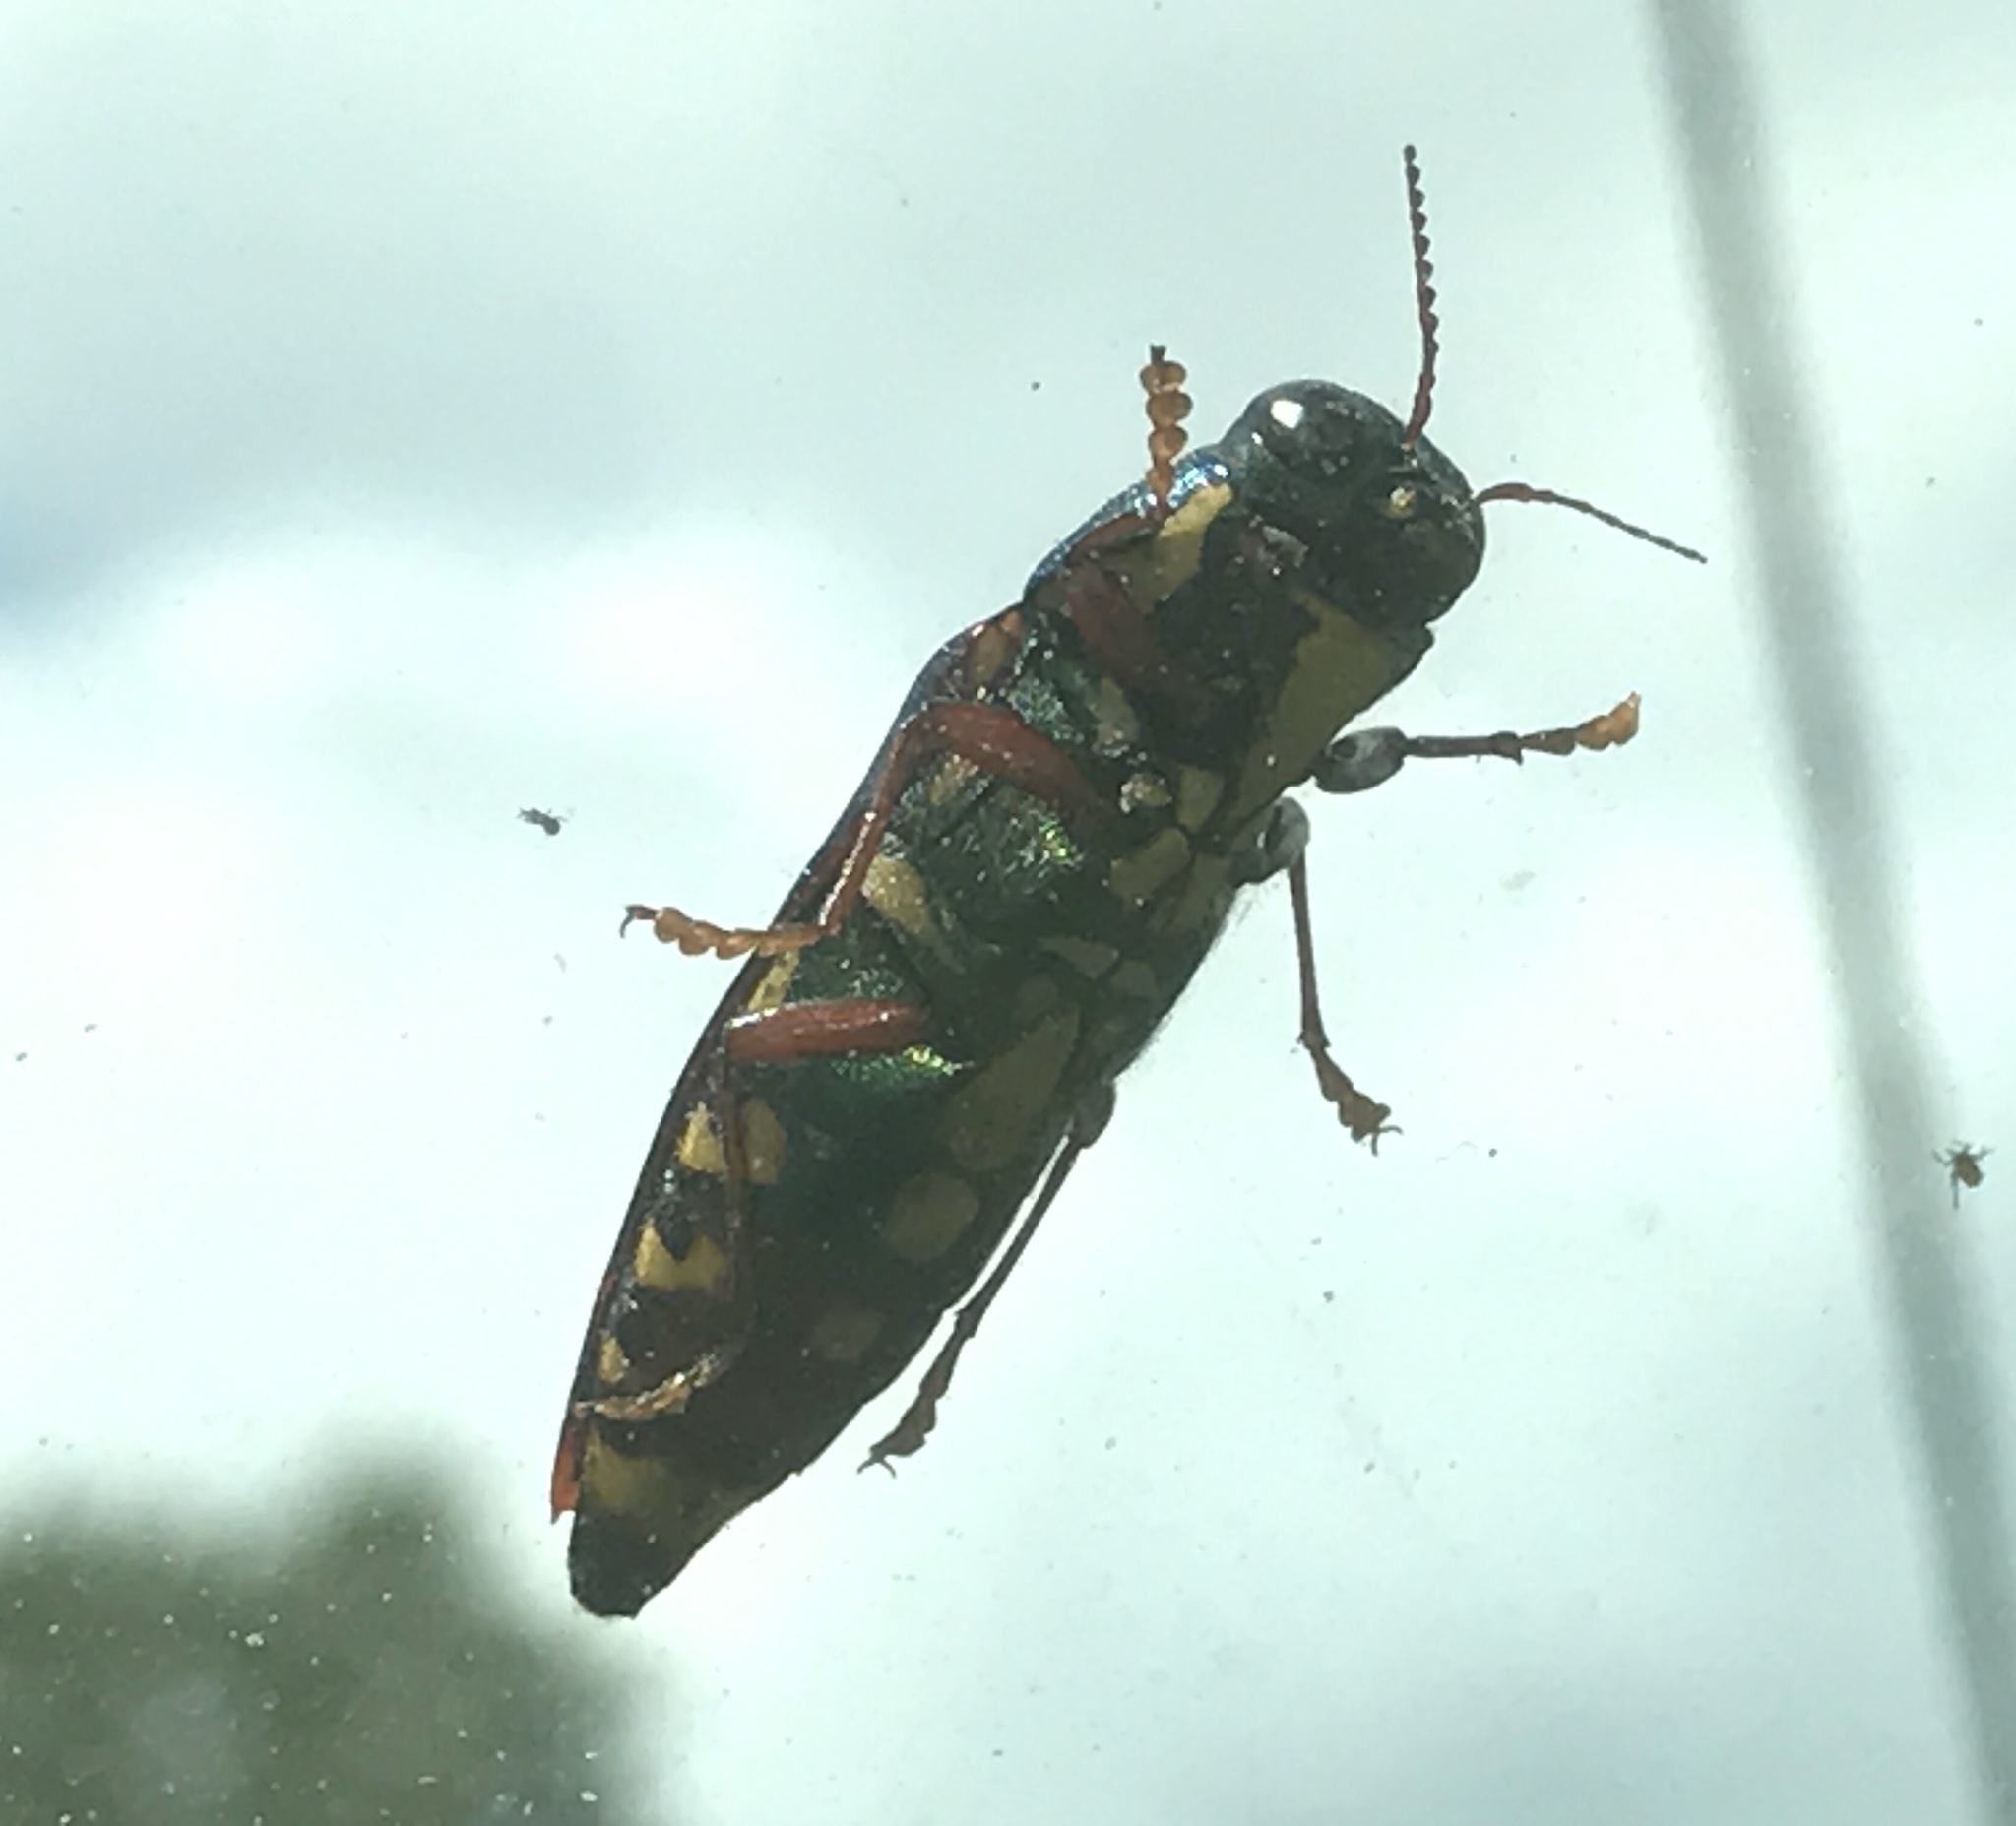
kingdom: Animalia
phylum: Arthropoda
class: Insecta
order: Coleoptera
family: Buprestidae
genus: Buprestis
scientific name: Buprestis rufipes
